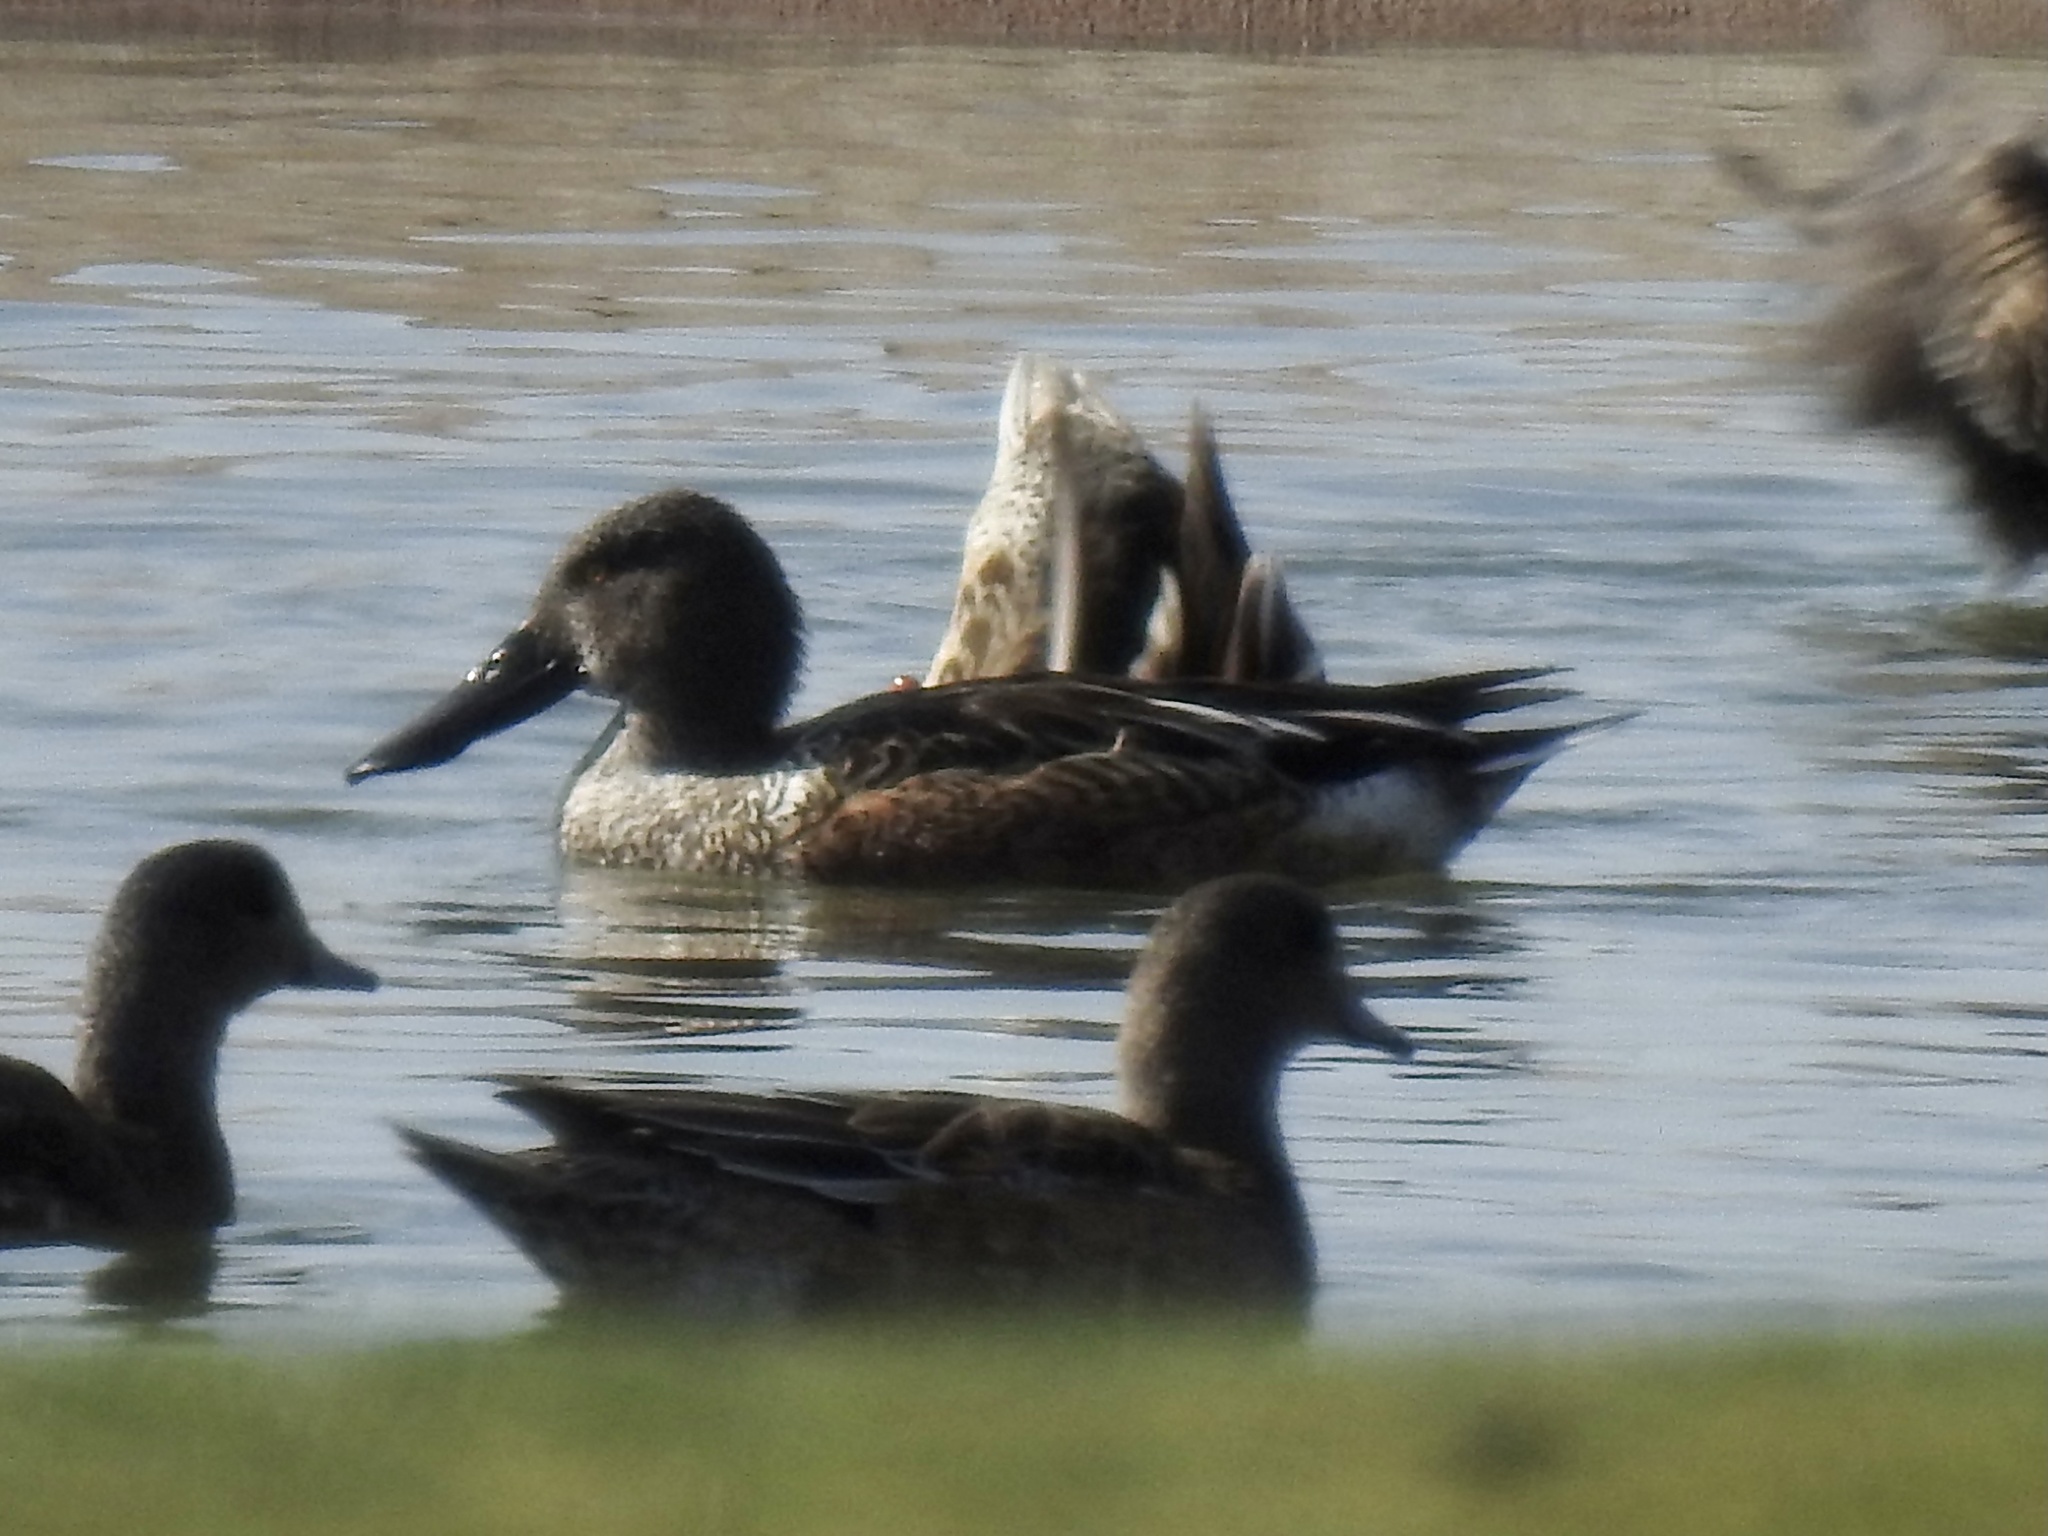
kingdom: Animalia
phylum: Chordata
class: Aves
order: Anseriformes
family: Anatidae
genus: Spatula
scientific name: Spatula clypeata
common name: Northern shoveler
